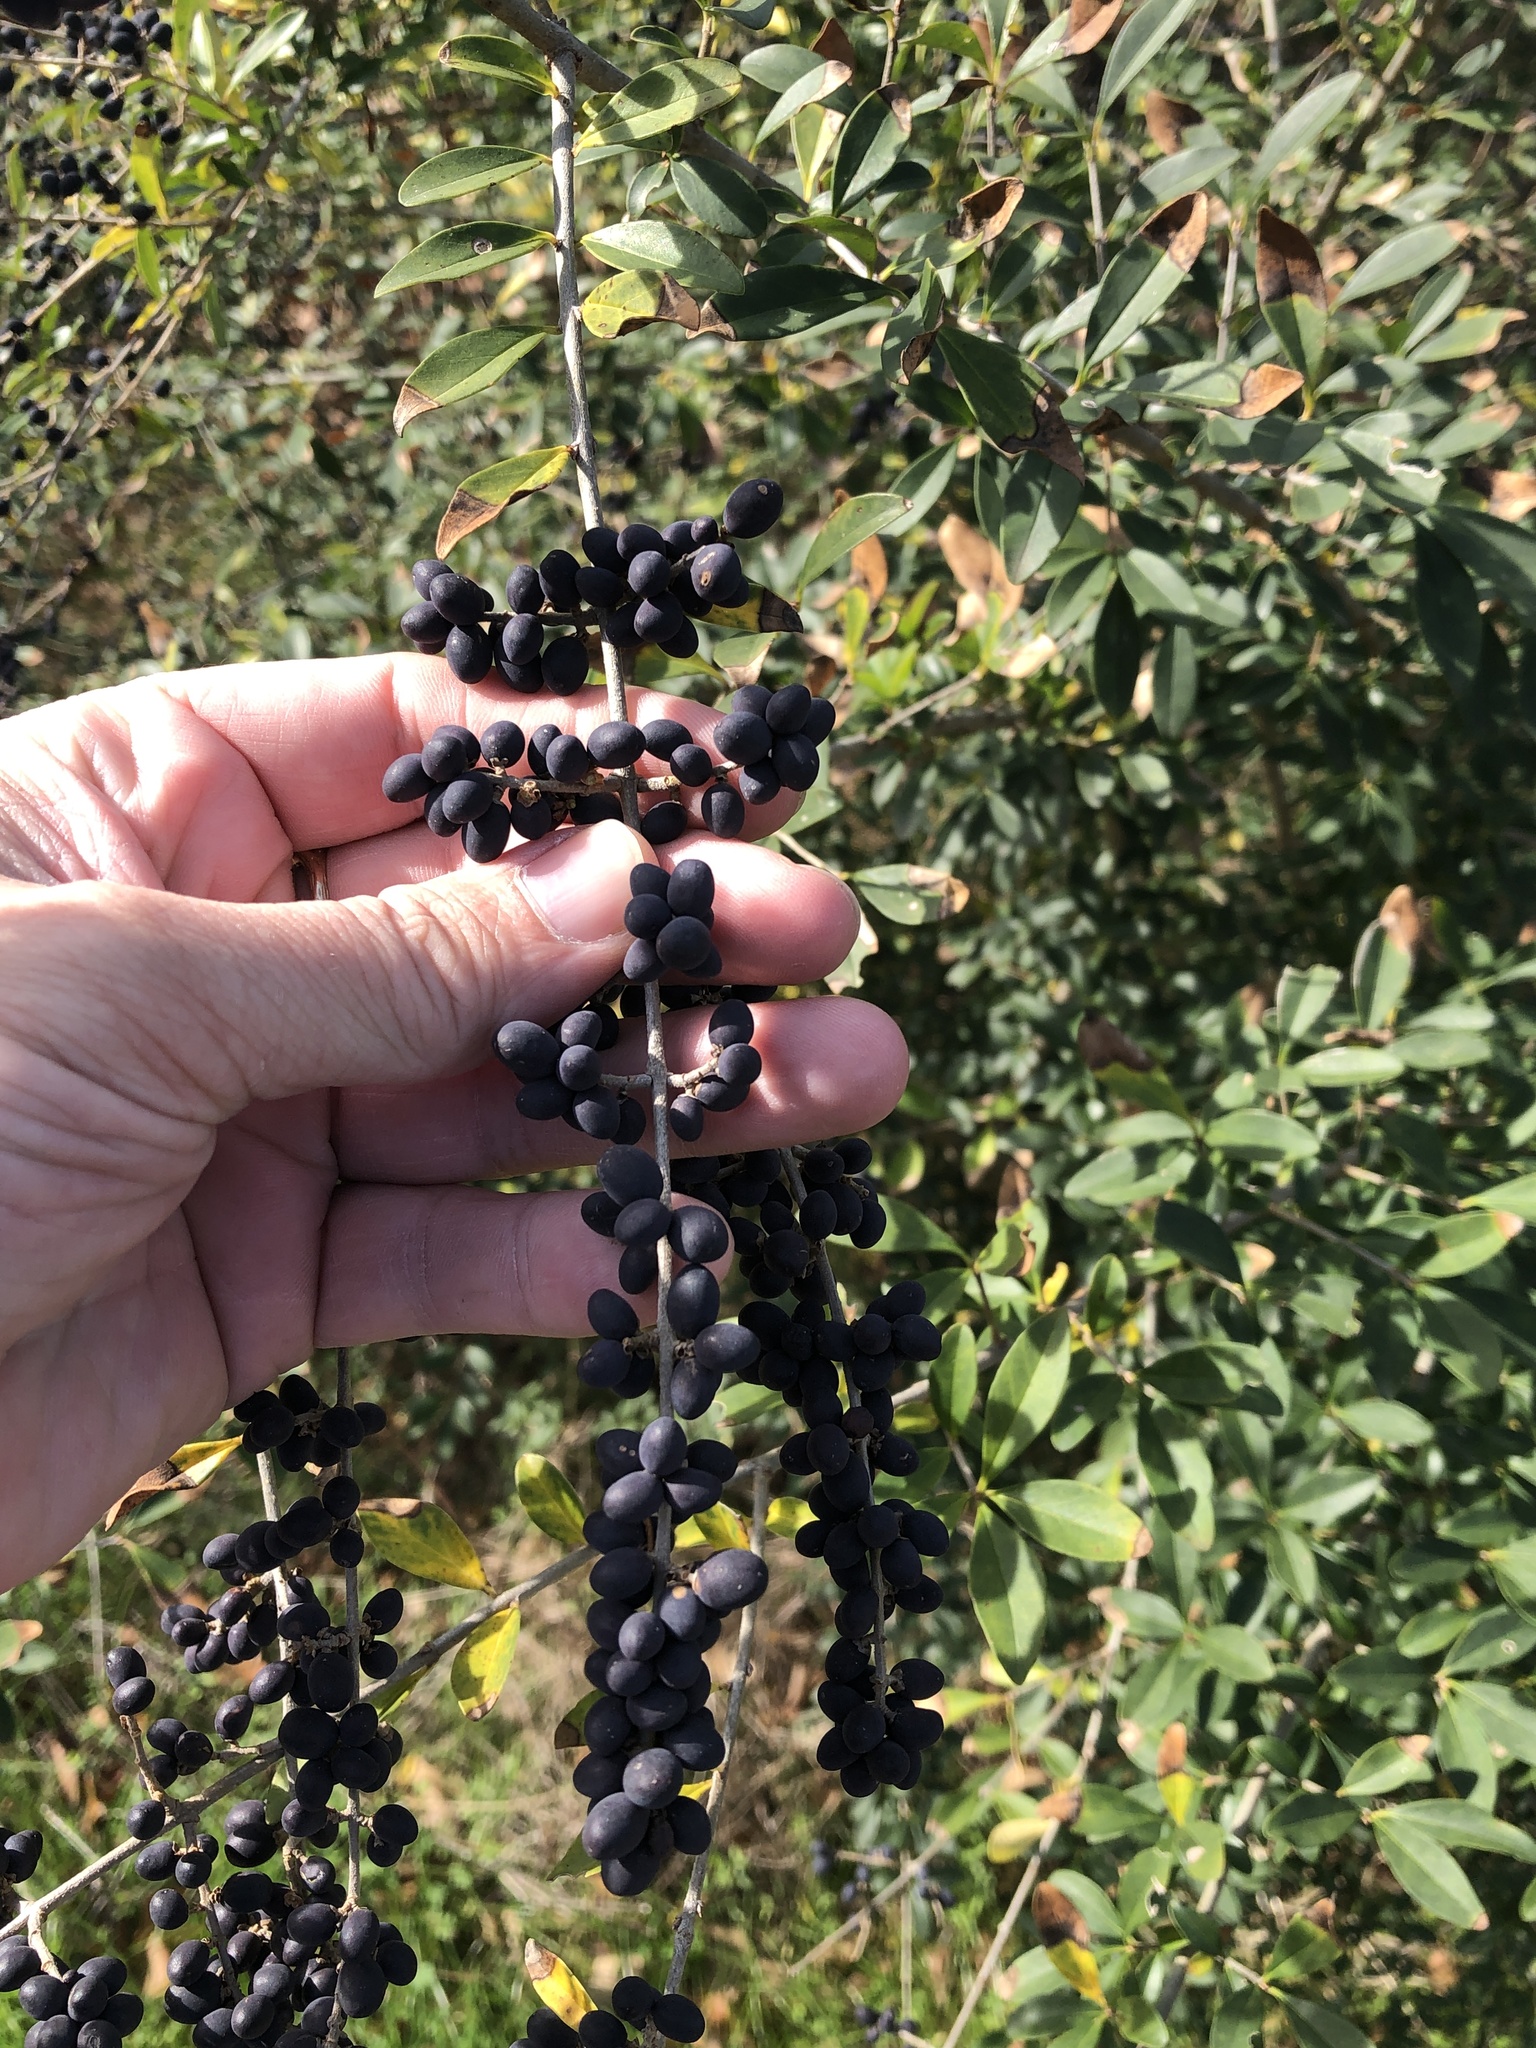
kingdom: Plantae
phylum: Tracheophyta
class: Magnoliopsida
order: Lamiales
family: Oleaceae
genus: Ligustrum
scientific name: Ligustrum quihoui
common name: Waxyleaf privet
